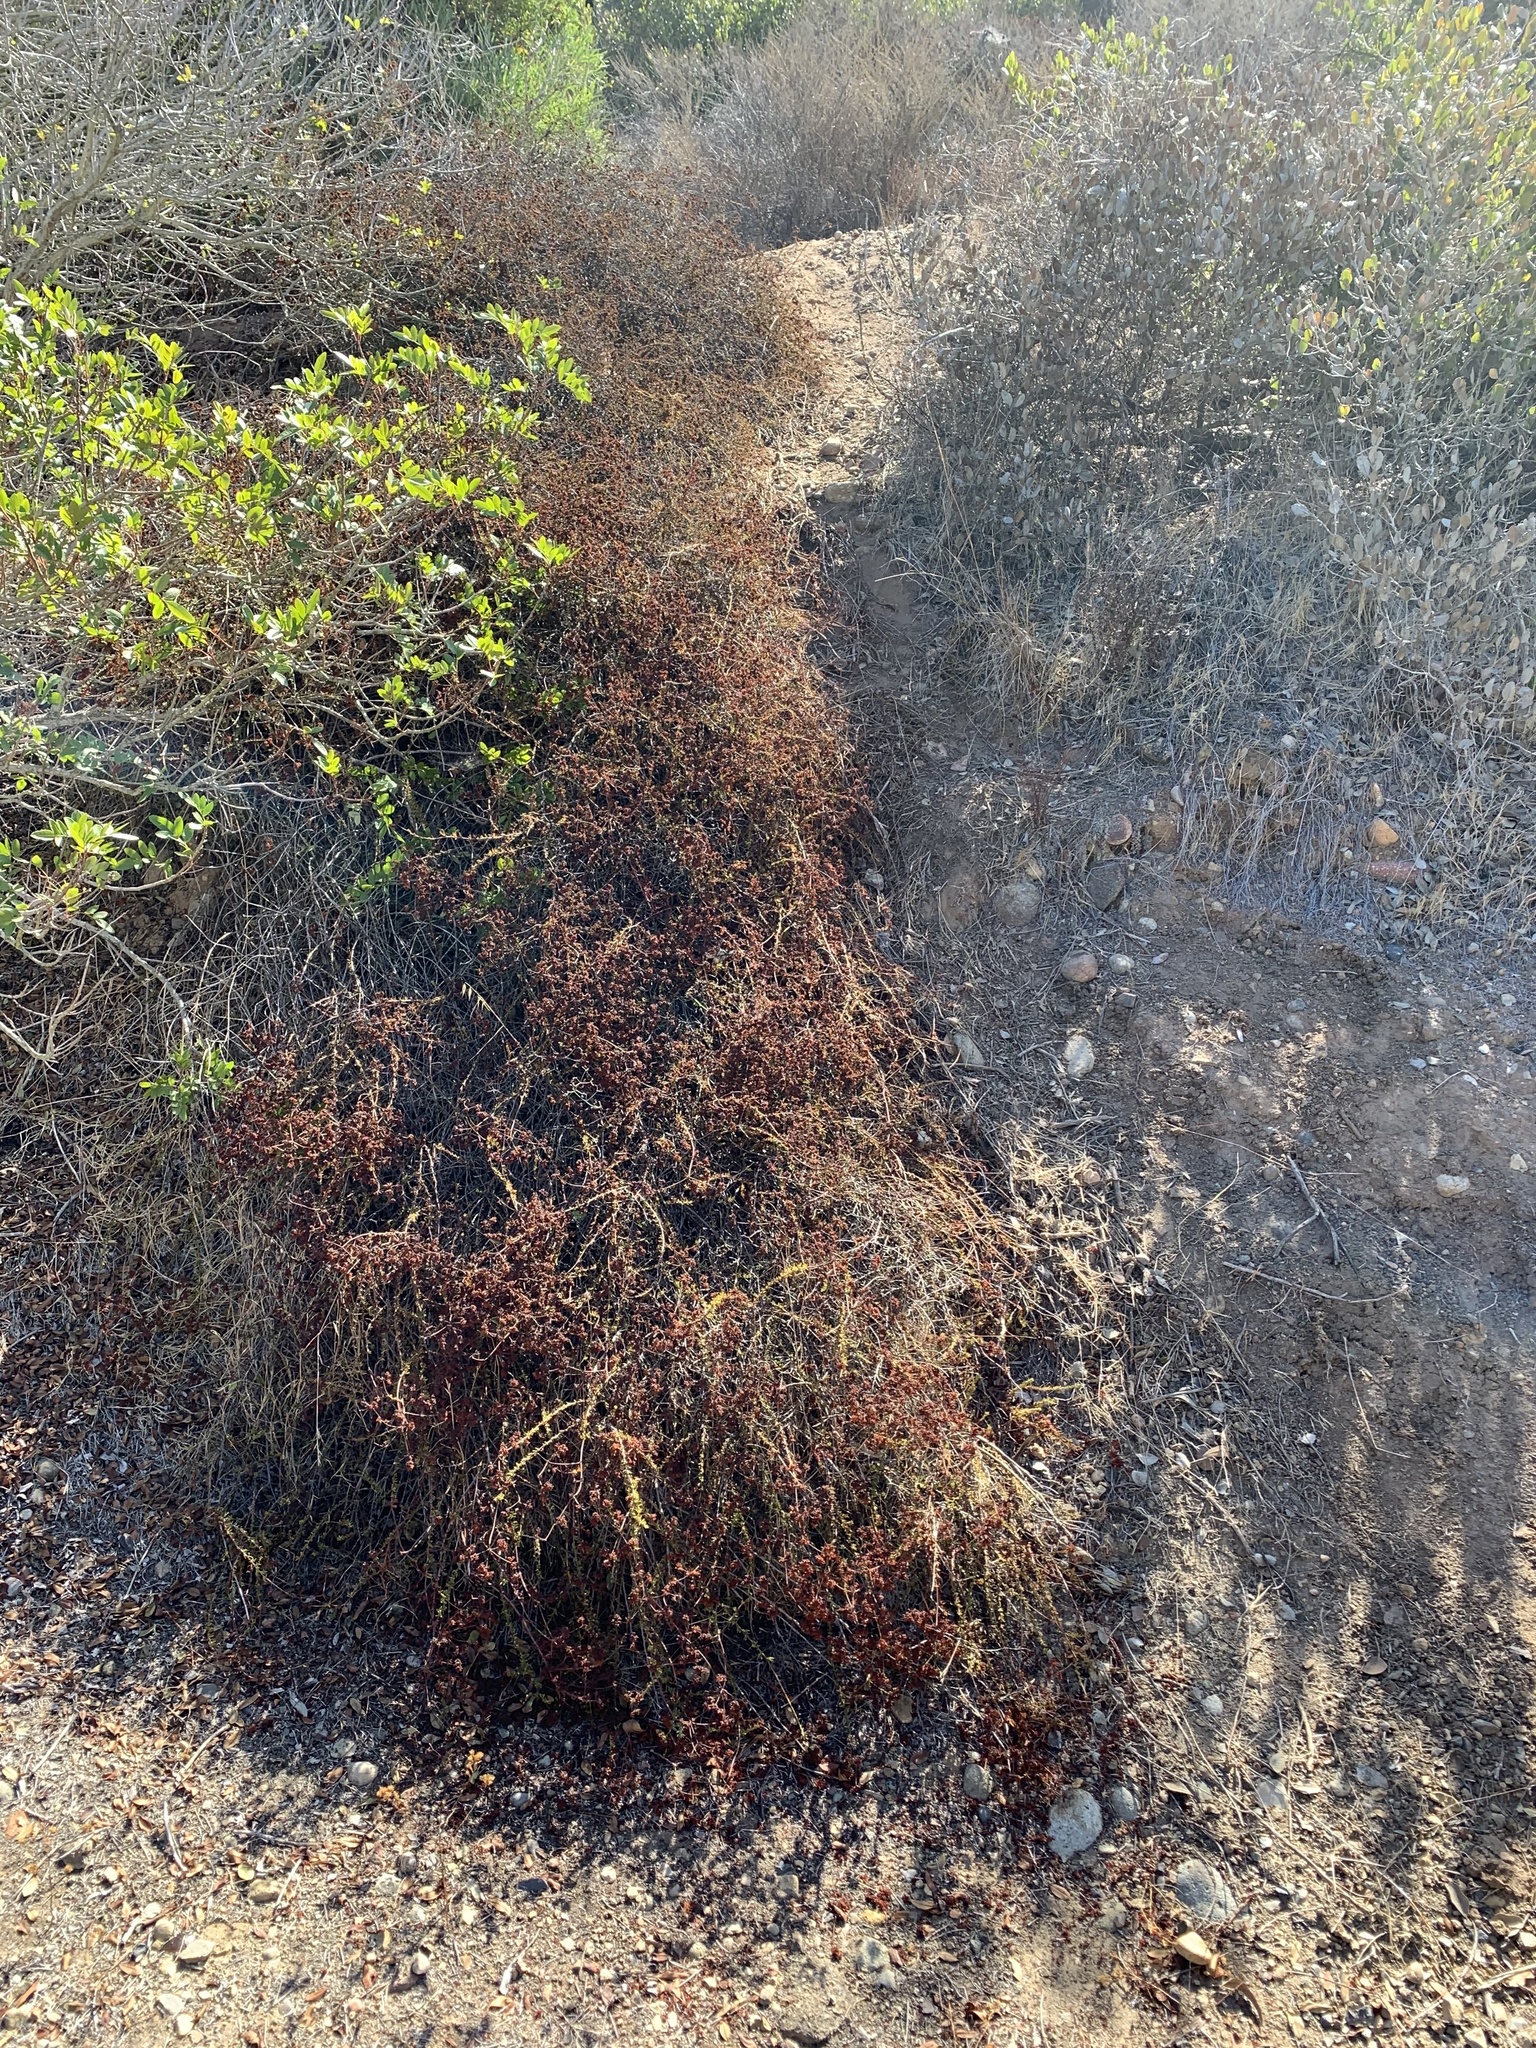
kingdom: Plantae
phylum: Tracheophyta
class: Magnoliopsida
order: Caryophyllales
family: Polygonaceae
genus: Eriogonum
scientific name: Eriogonum fasciculatum
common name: California wild buckwheat
